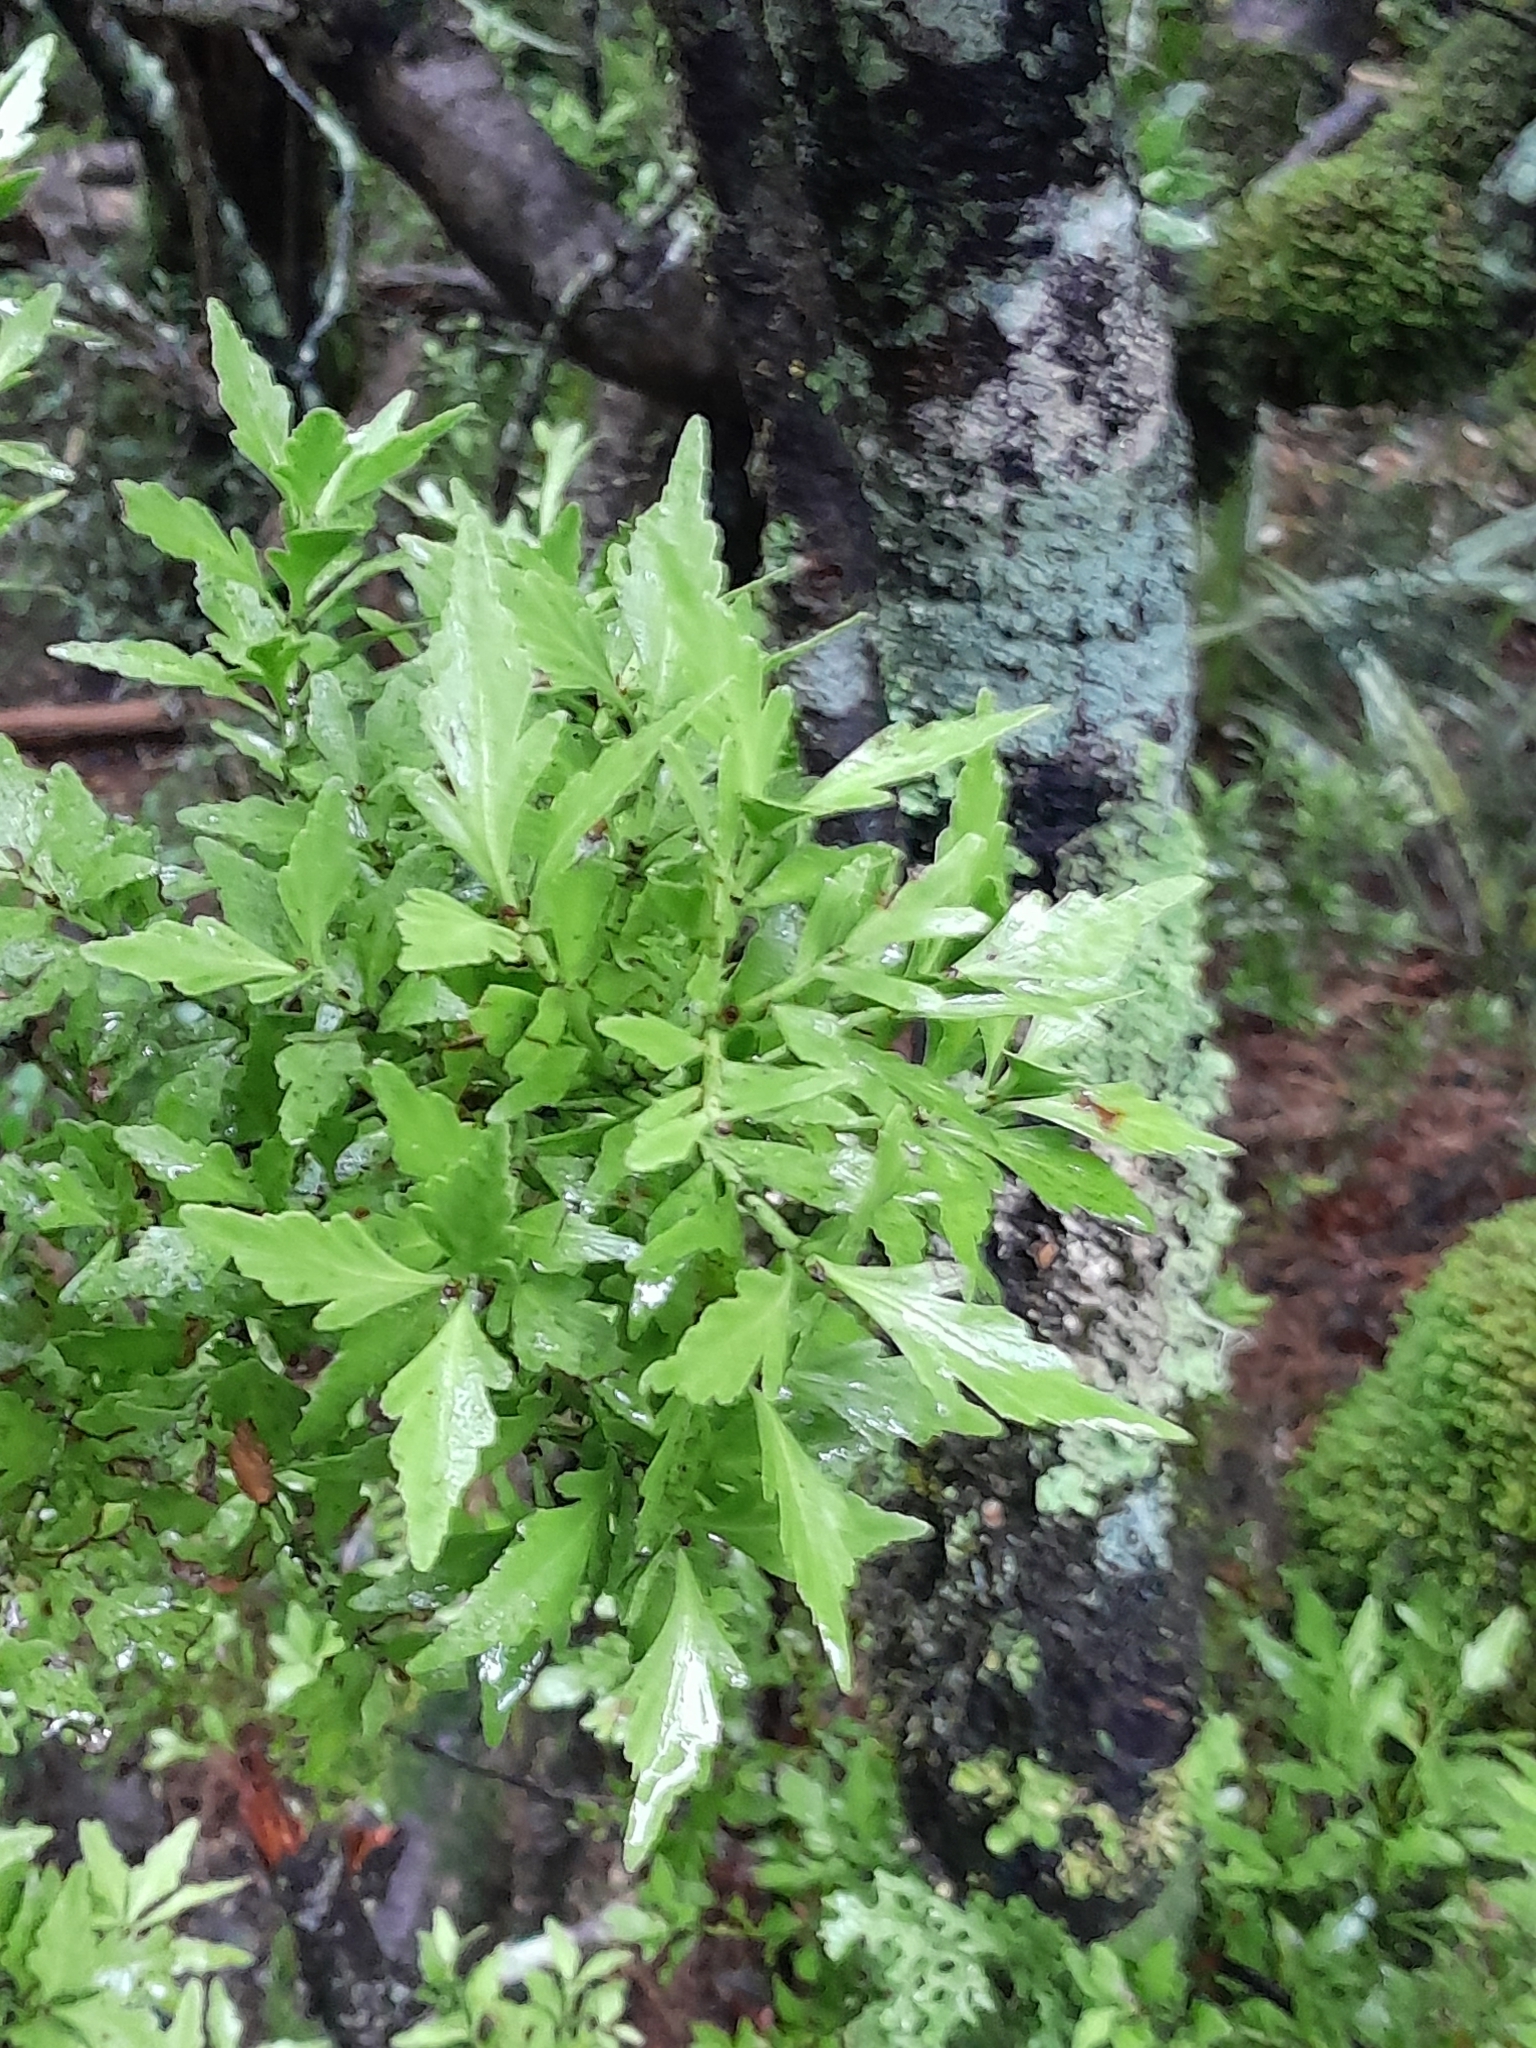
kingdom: Plantae
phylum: Tracheophyta
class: Pinopsida
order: Pinales
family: Phyllocladaceae
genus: Phyllocladus
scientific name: Phyllocladus trichomanoides
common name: Celery pine
